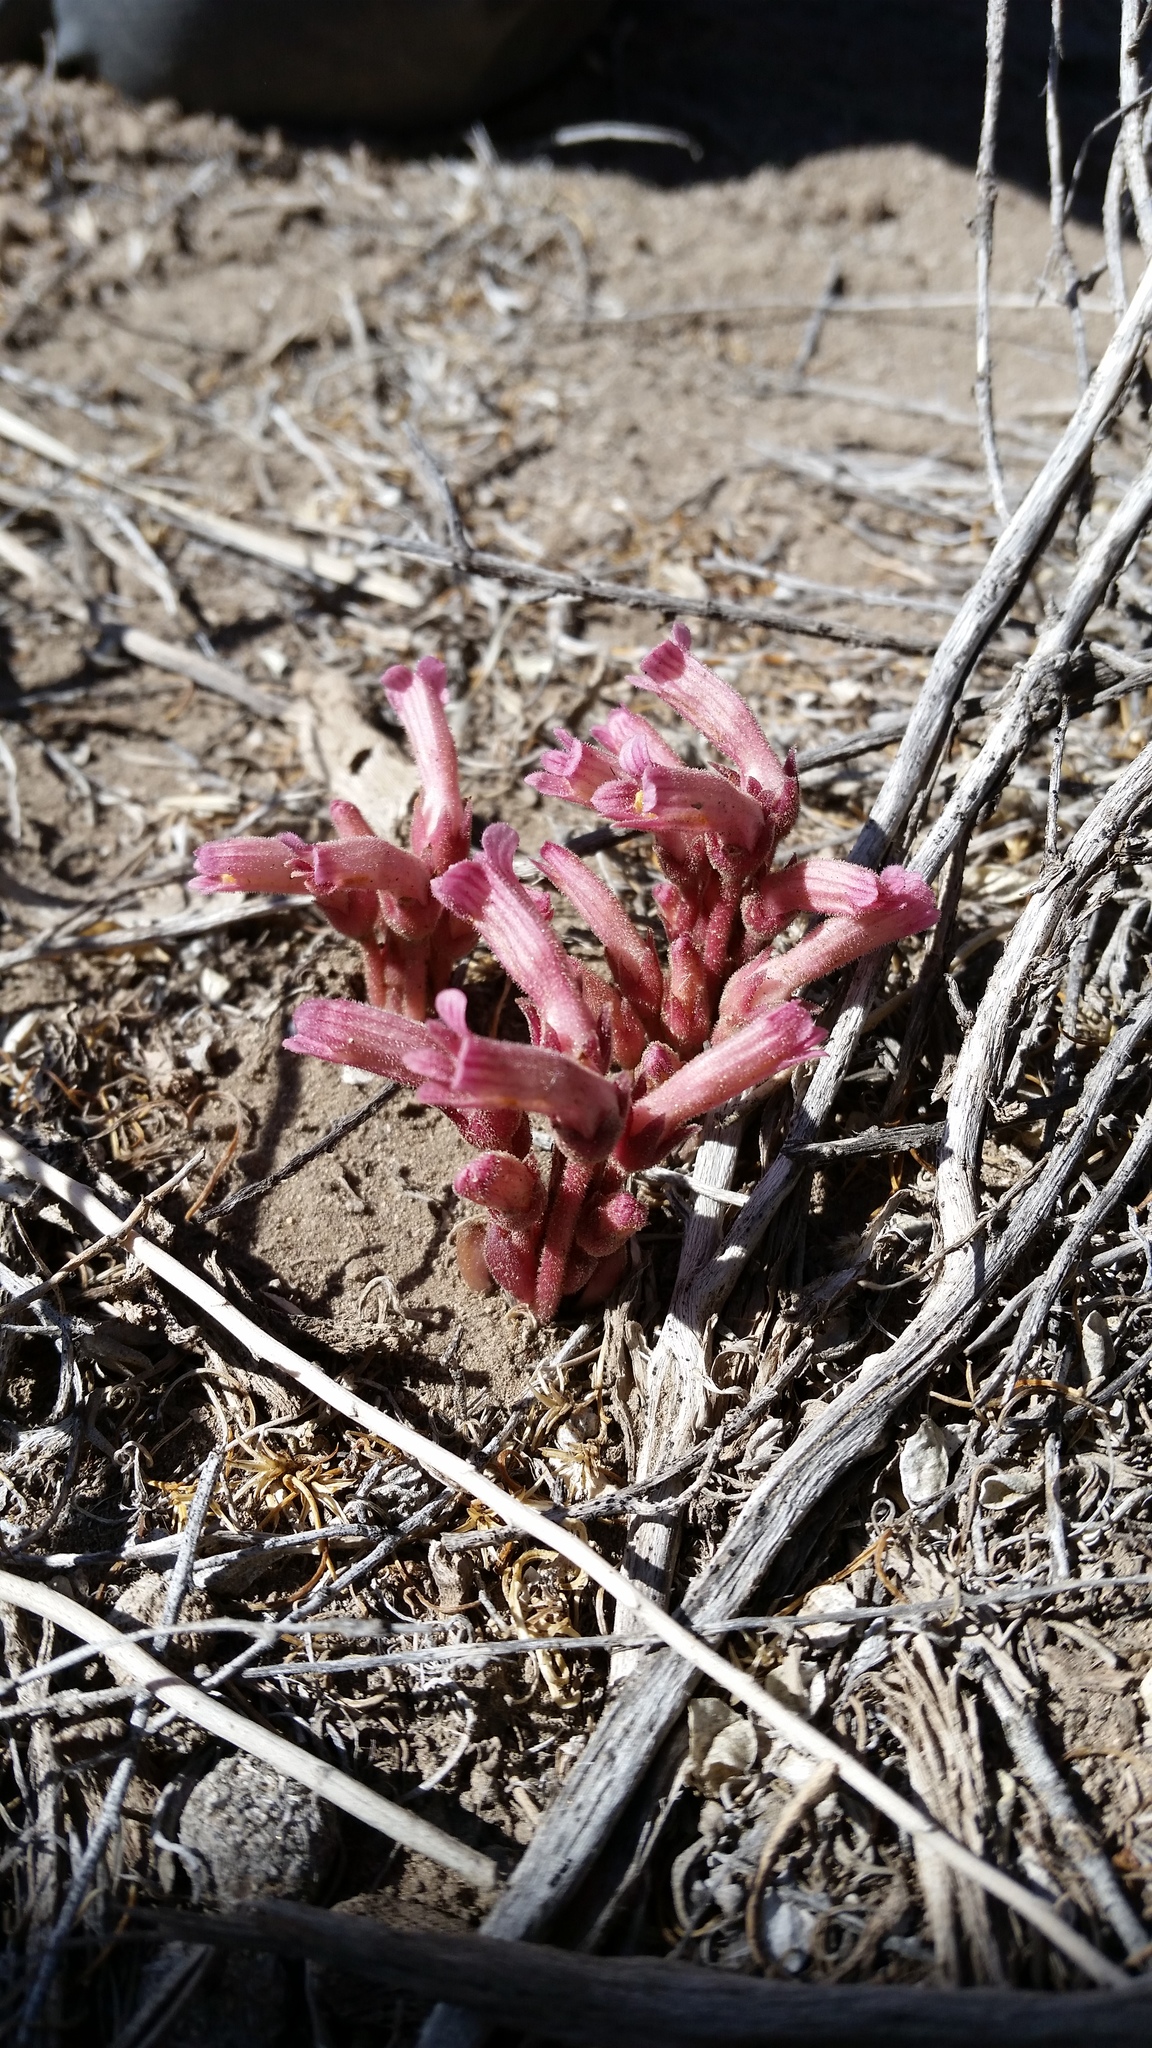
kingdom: Plantae
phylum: Tracheophyta
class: Magnoliopsida
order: Lamiales
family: Orobanchaceae
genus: Aphyllon
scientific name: Aphyllon fasciculatum
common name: Clustered broomrape
